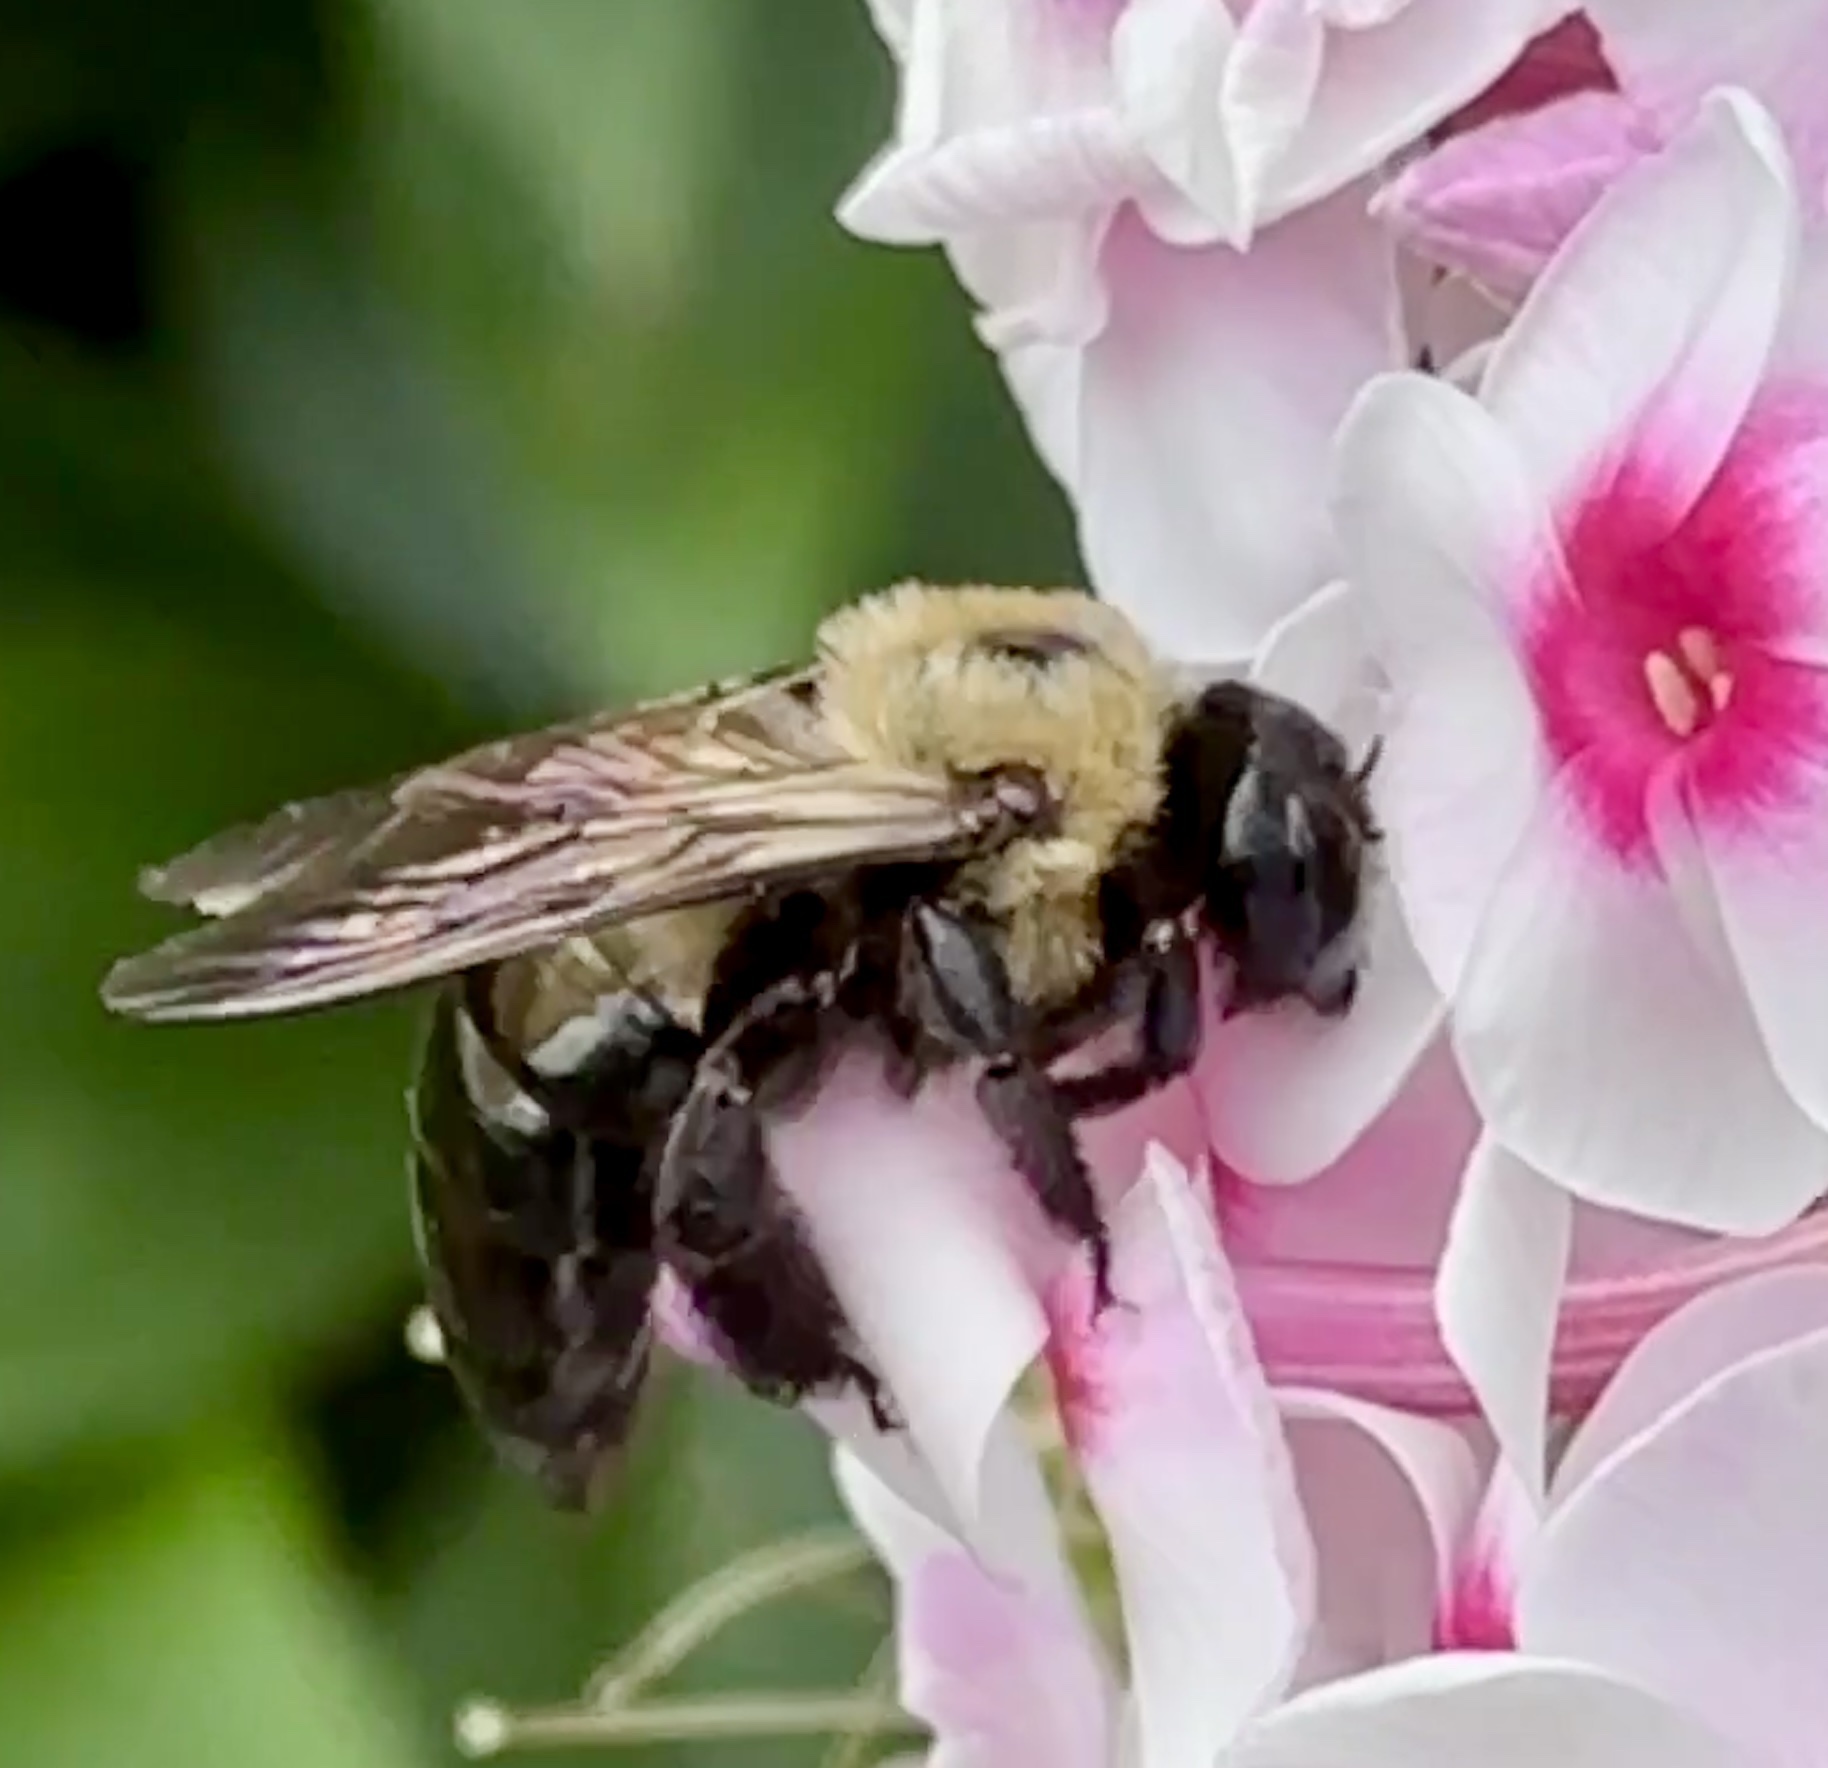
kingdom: Animalia
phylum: Arthropoda
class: Insecta
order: Hymenoptera
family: Apidae
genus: Xylocopa
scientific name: Xylocopa virginica
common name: Carpenter bee
